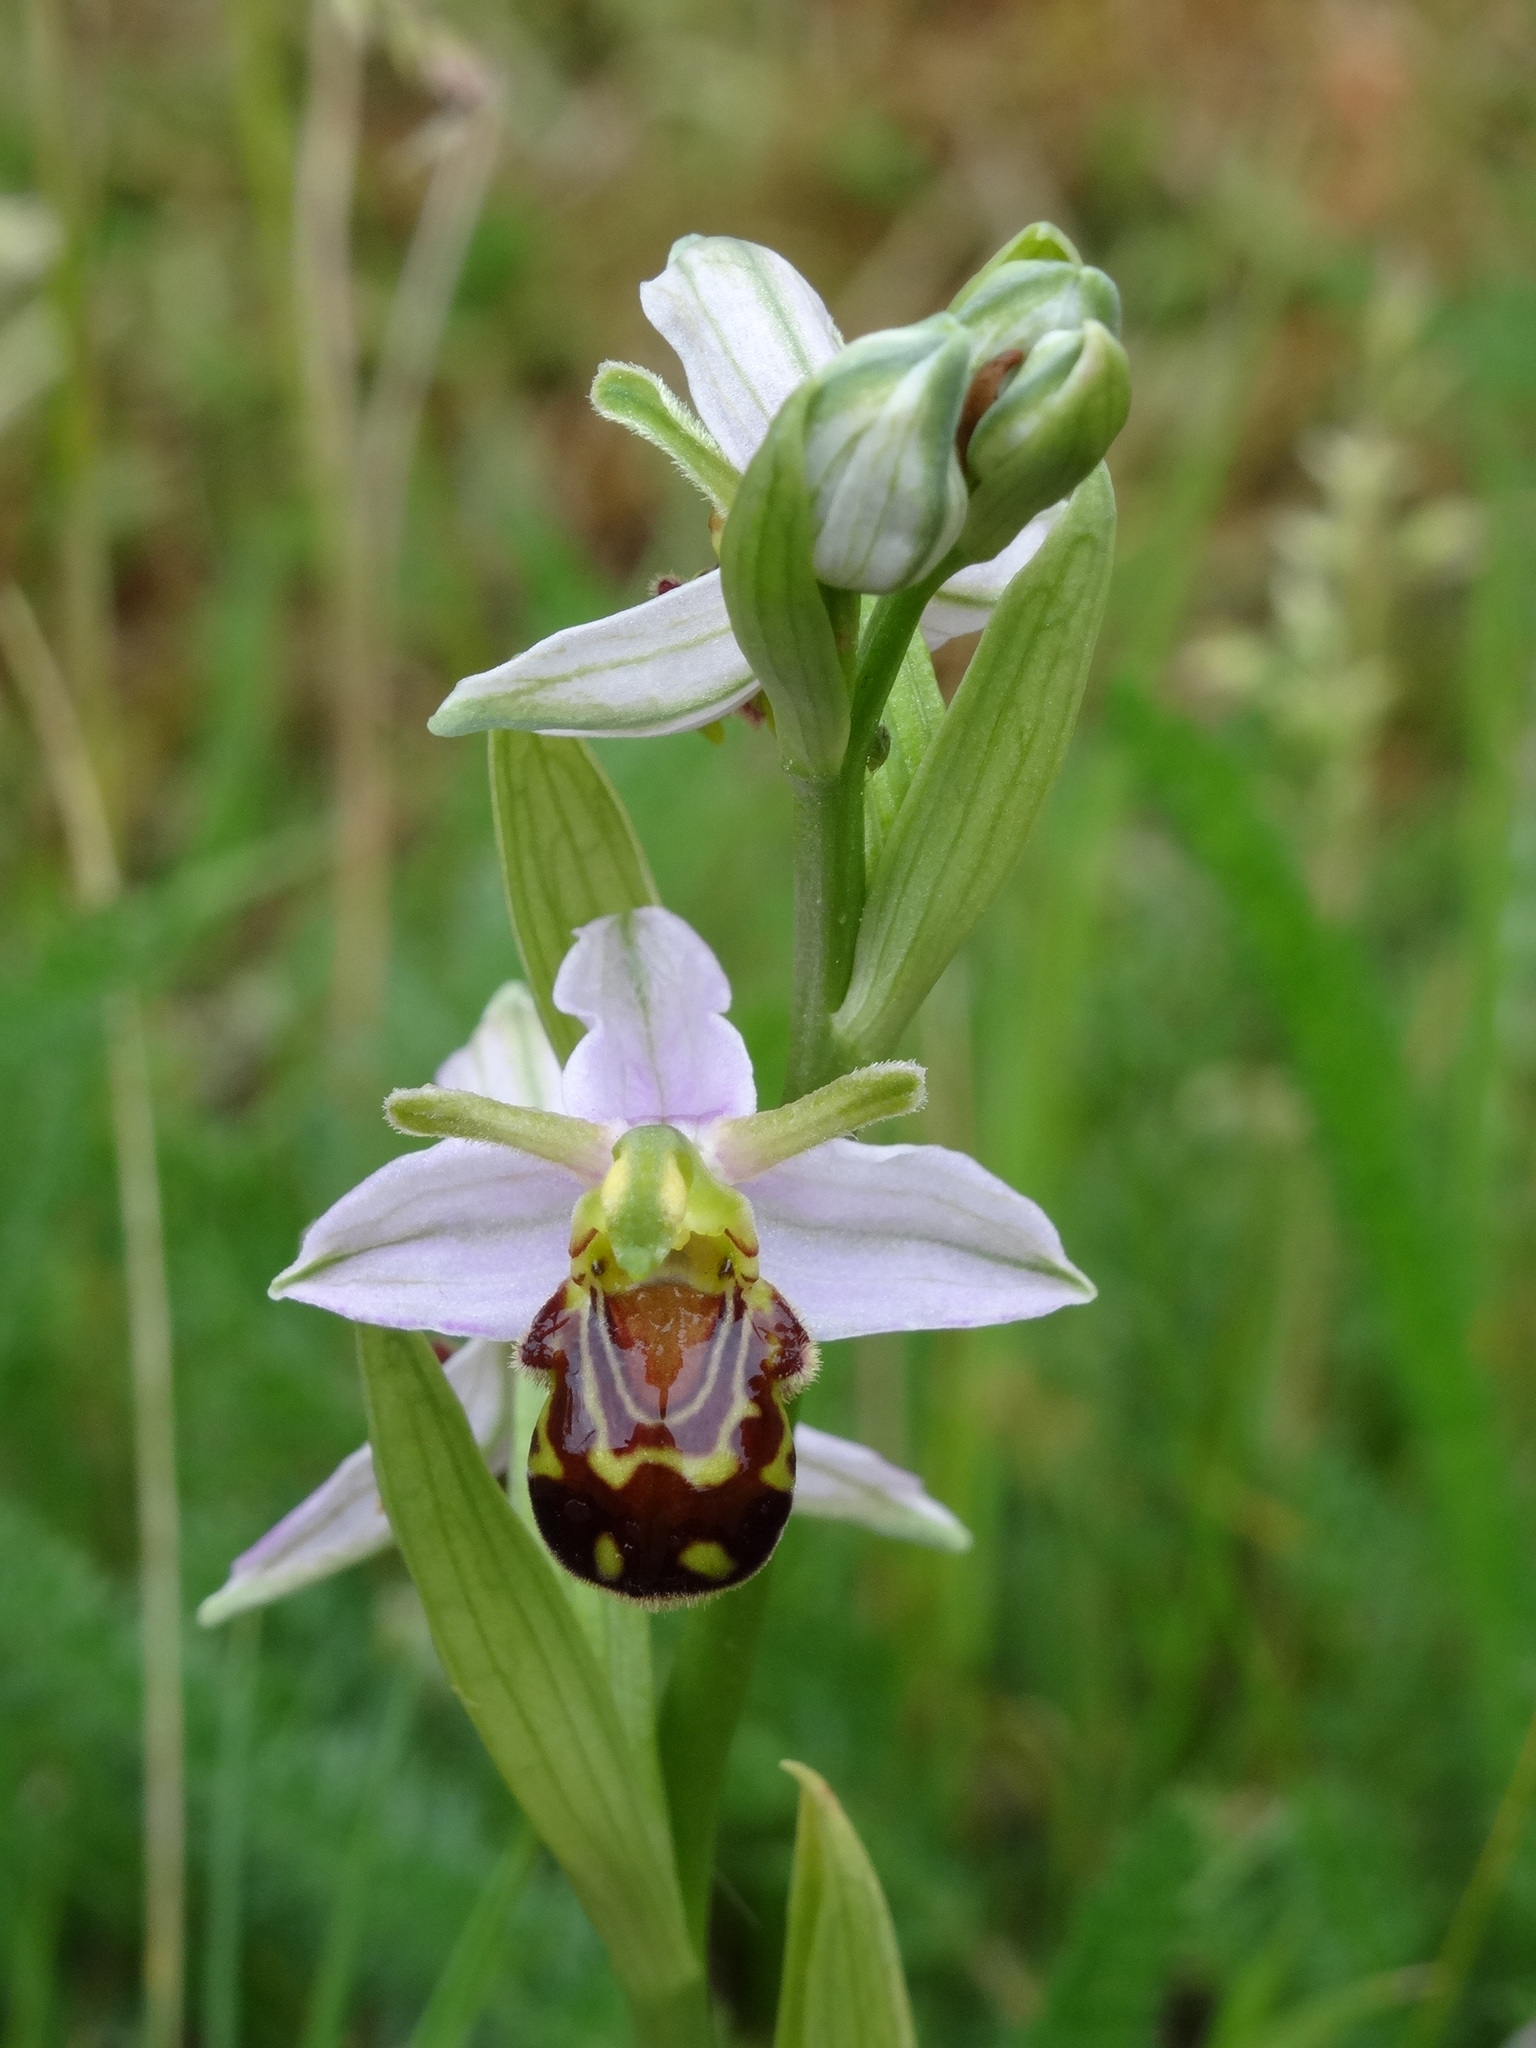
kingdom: Plantae
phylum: Tracheophyta
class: Liliopsida
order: Asparagales
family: Orchidaceae
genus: Ophrys
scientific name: Ophrys apifera
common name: Bee orchid
